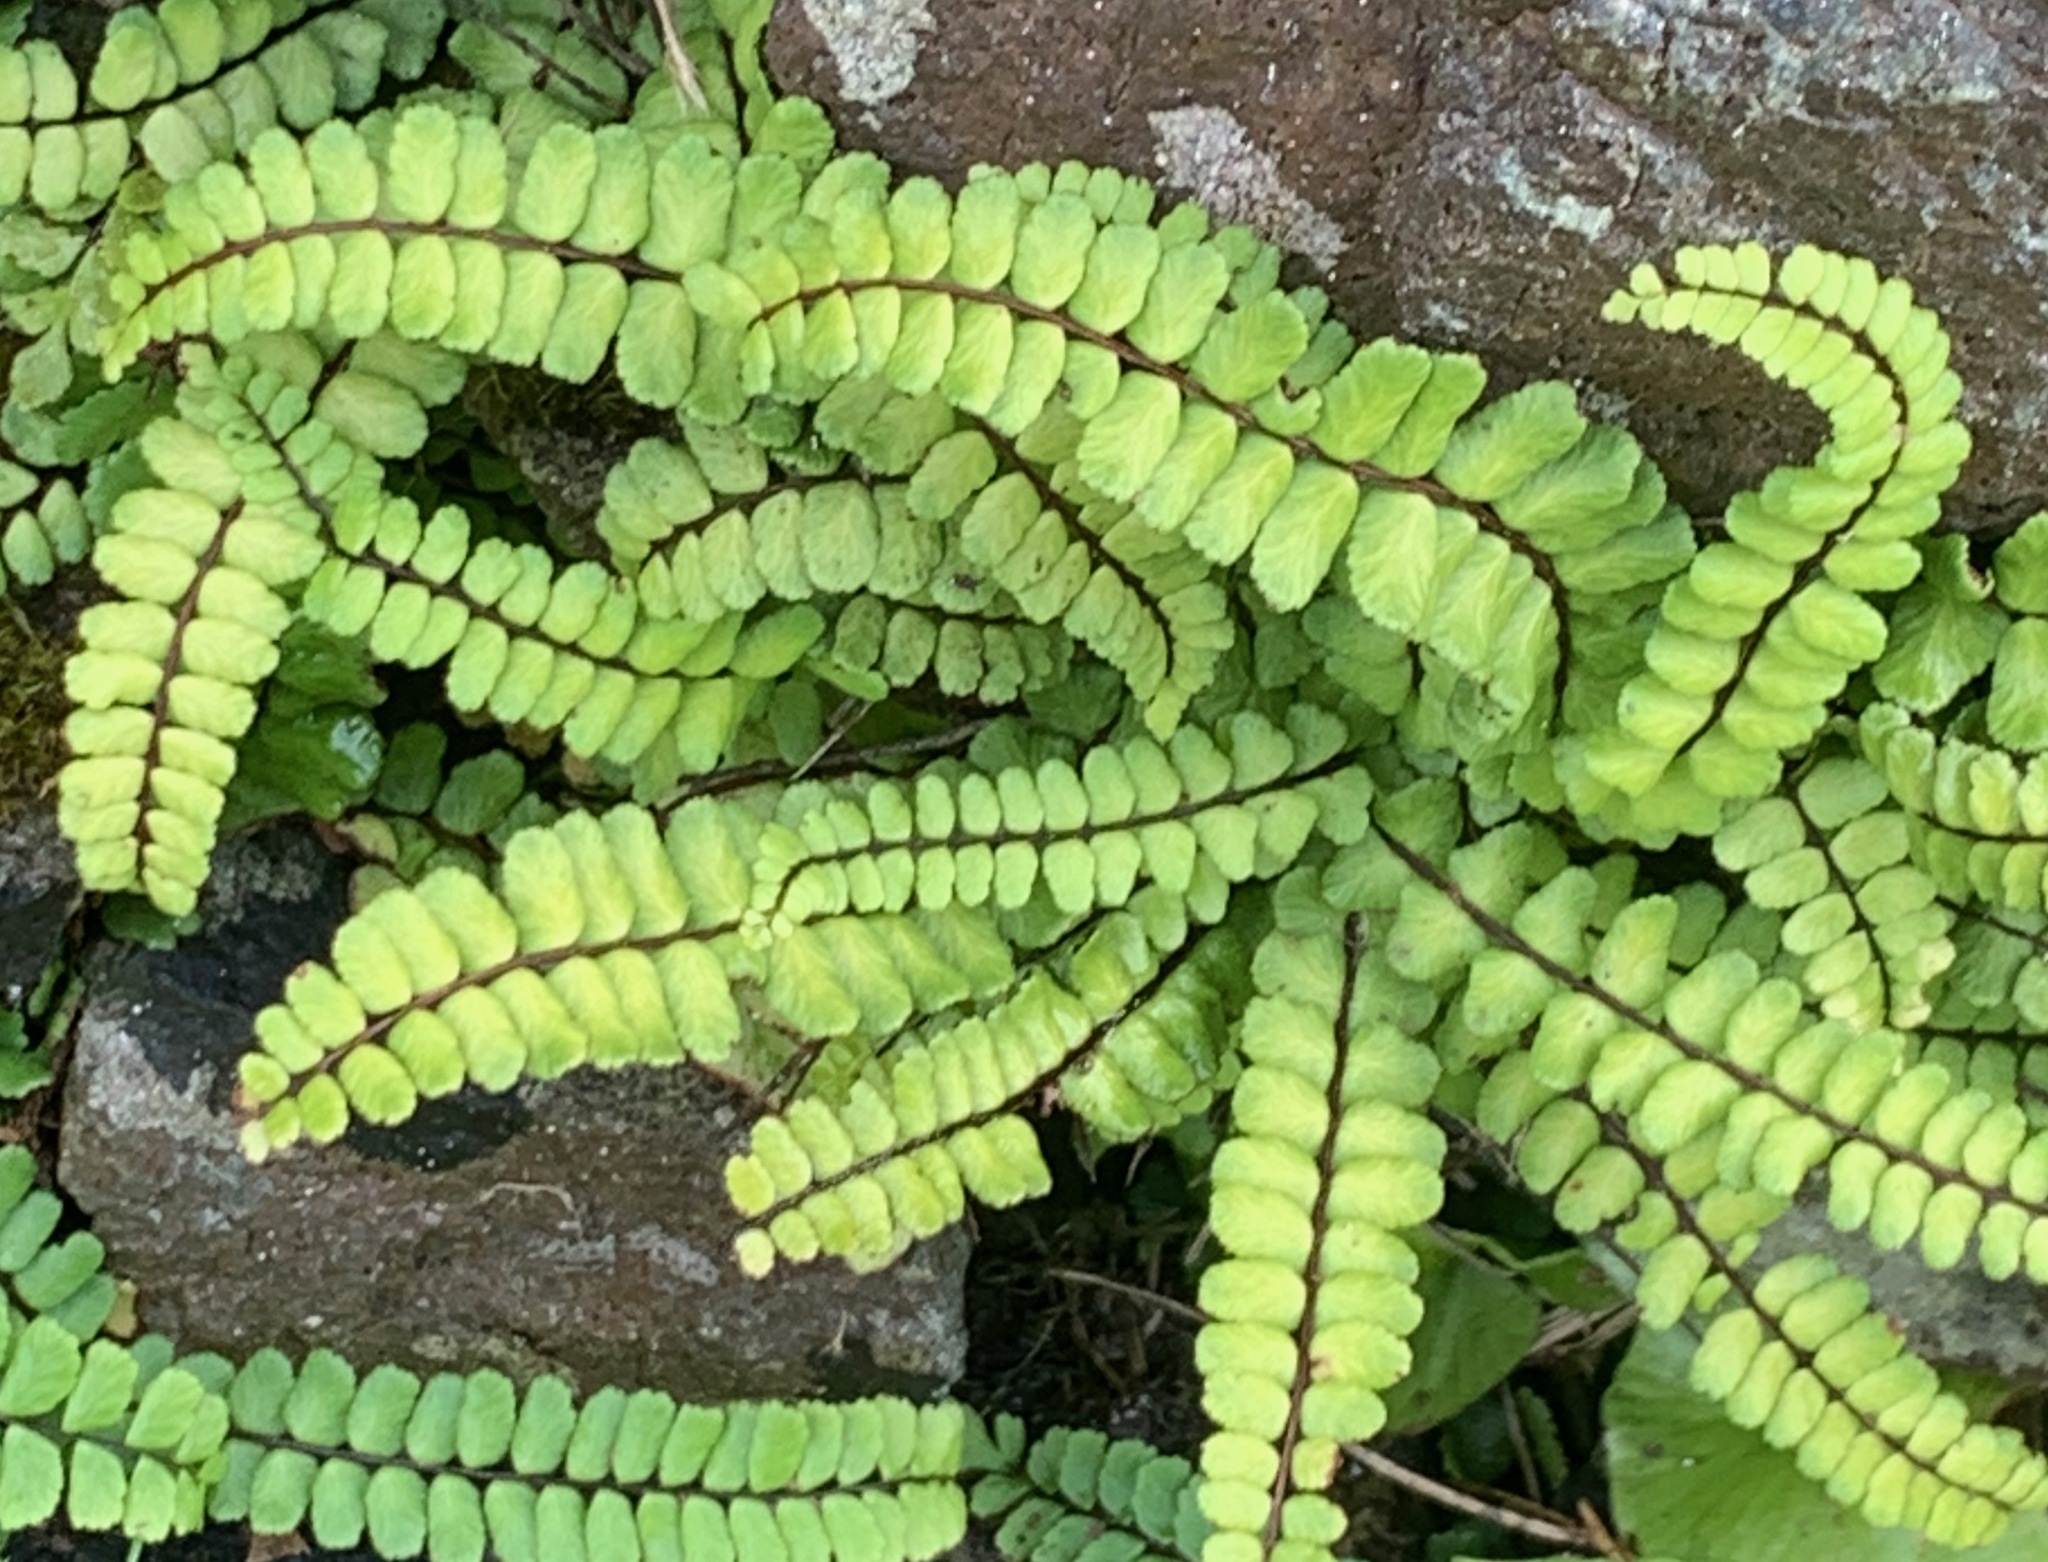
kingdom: Plantae
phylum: Tracheophyta
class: Polypodiopsida
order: Polypodiales
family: Aspleniaceae
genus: Asplenium
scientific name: Asplenium trichomanes
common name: Maidenhair spleenwort
